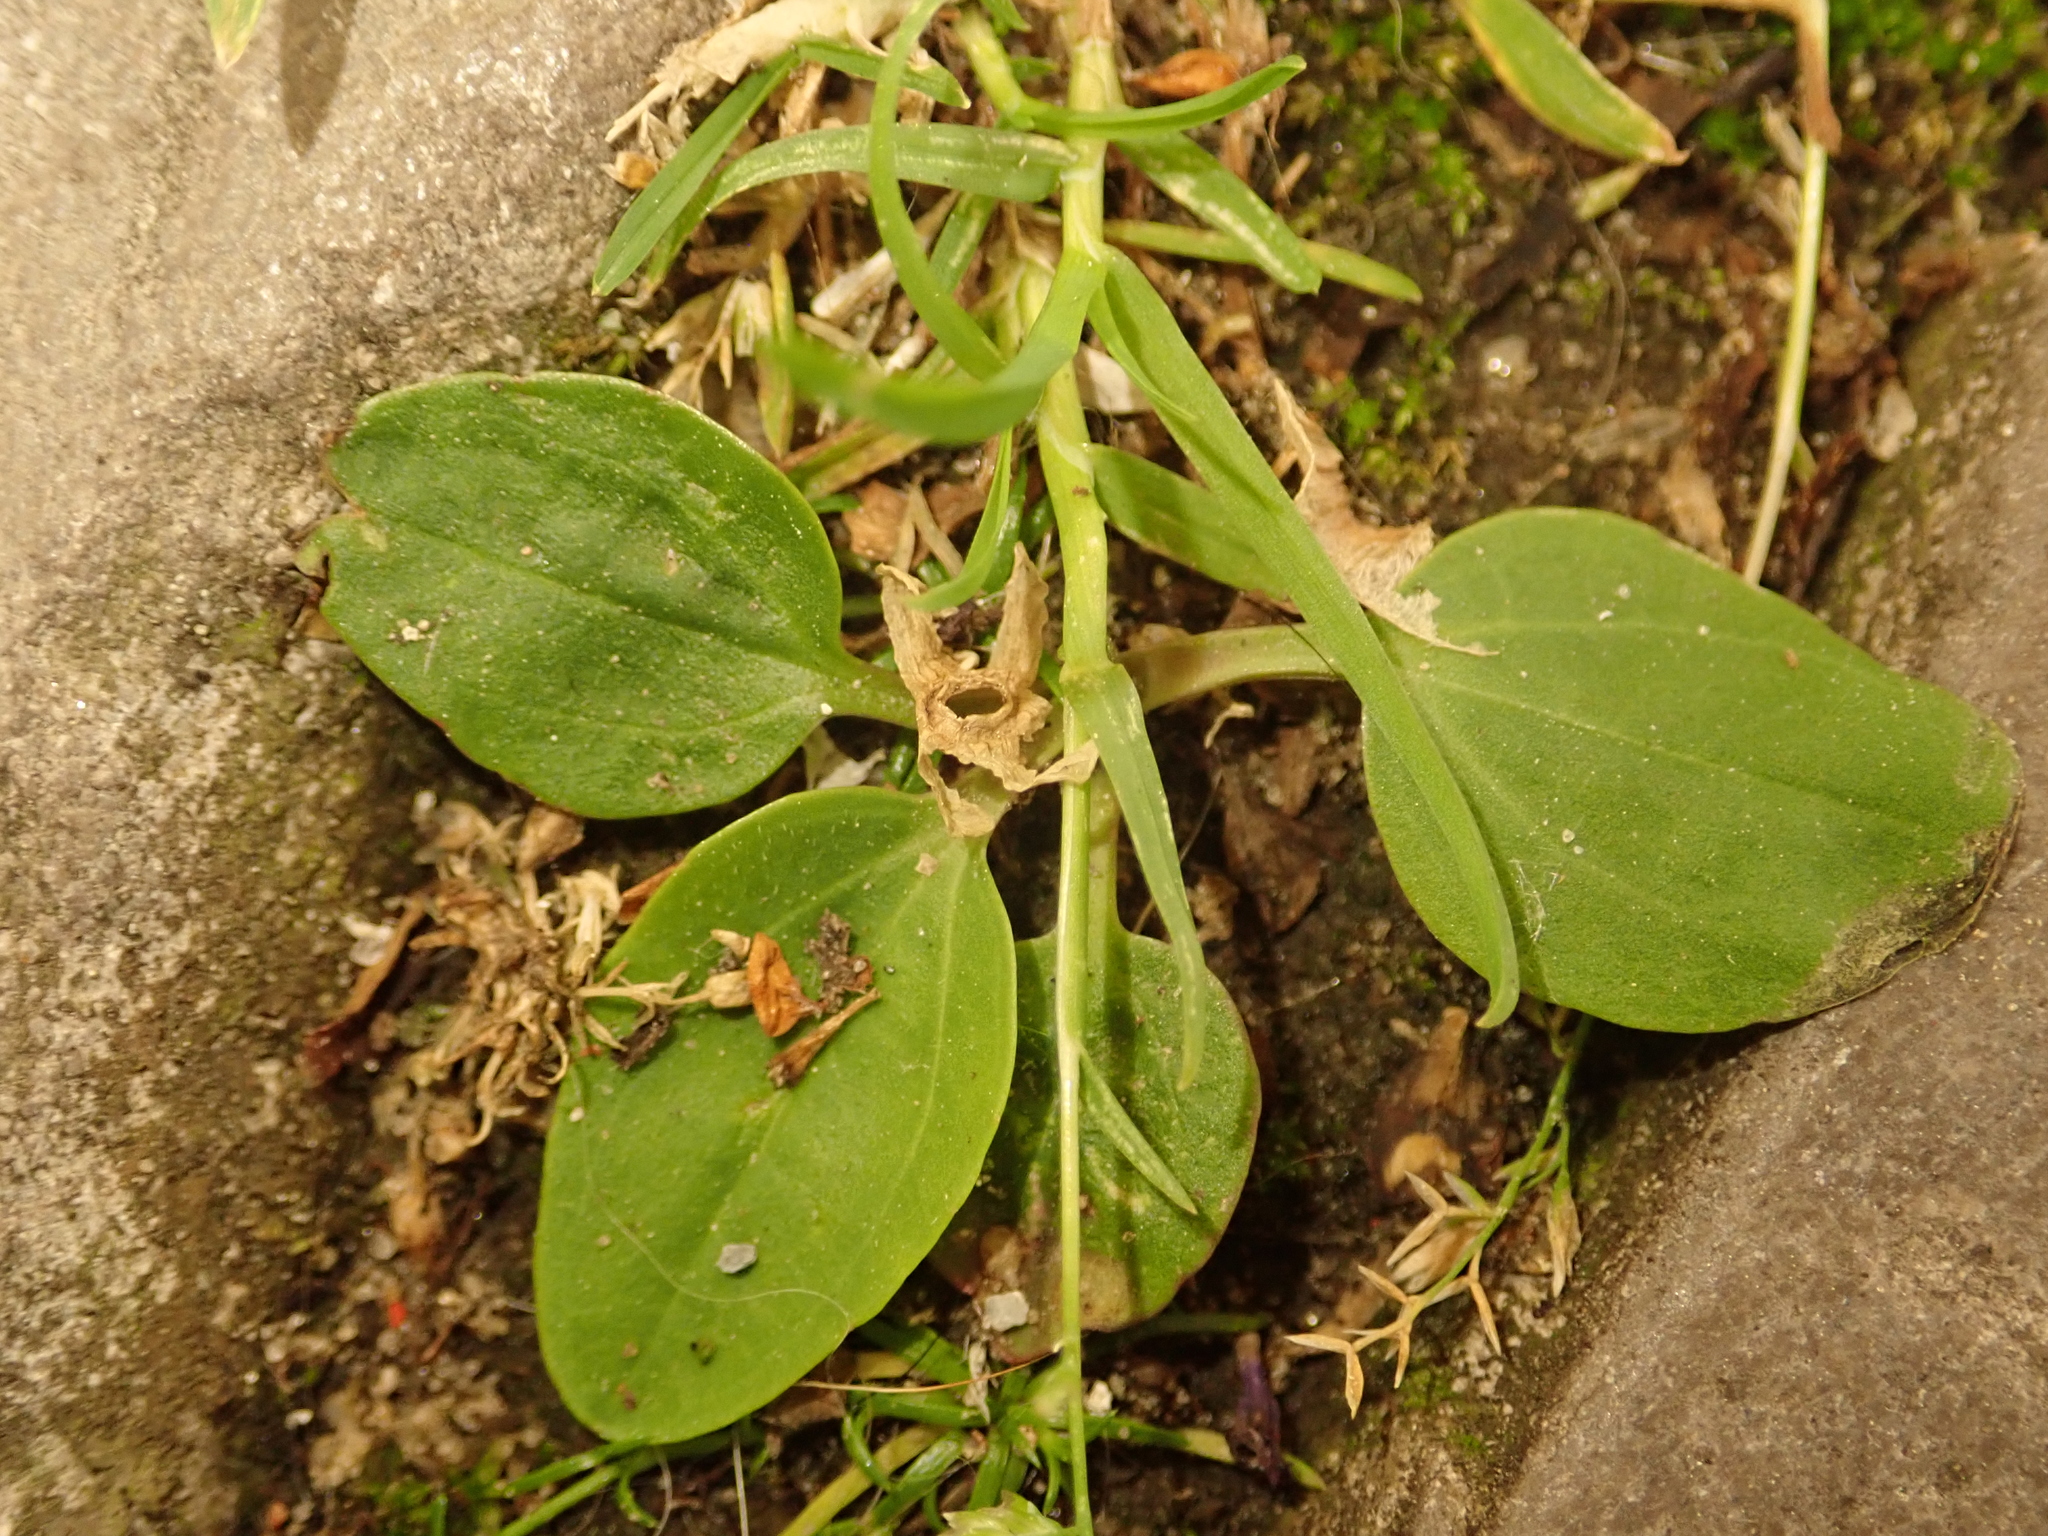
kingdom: Plantae
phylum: Tracheophyta
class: Magnoliopsida
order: Lamiales
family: Plantaginaceae
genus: Plantago
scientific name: Plantago major
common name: Common plantain
